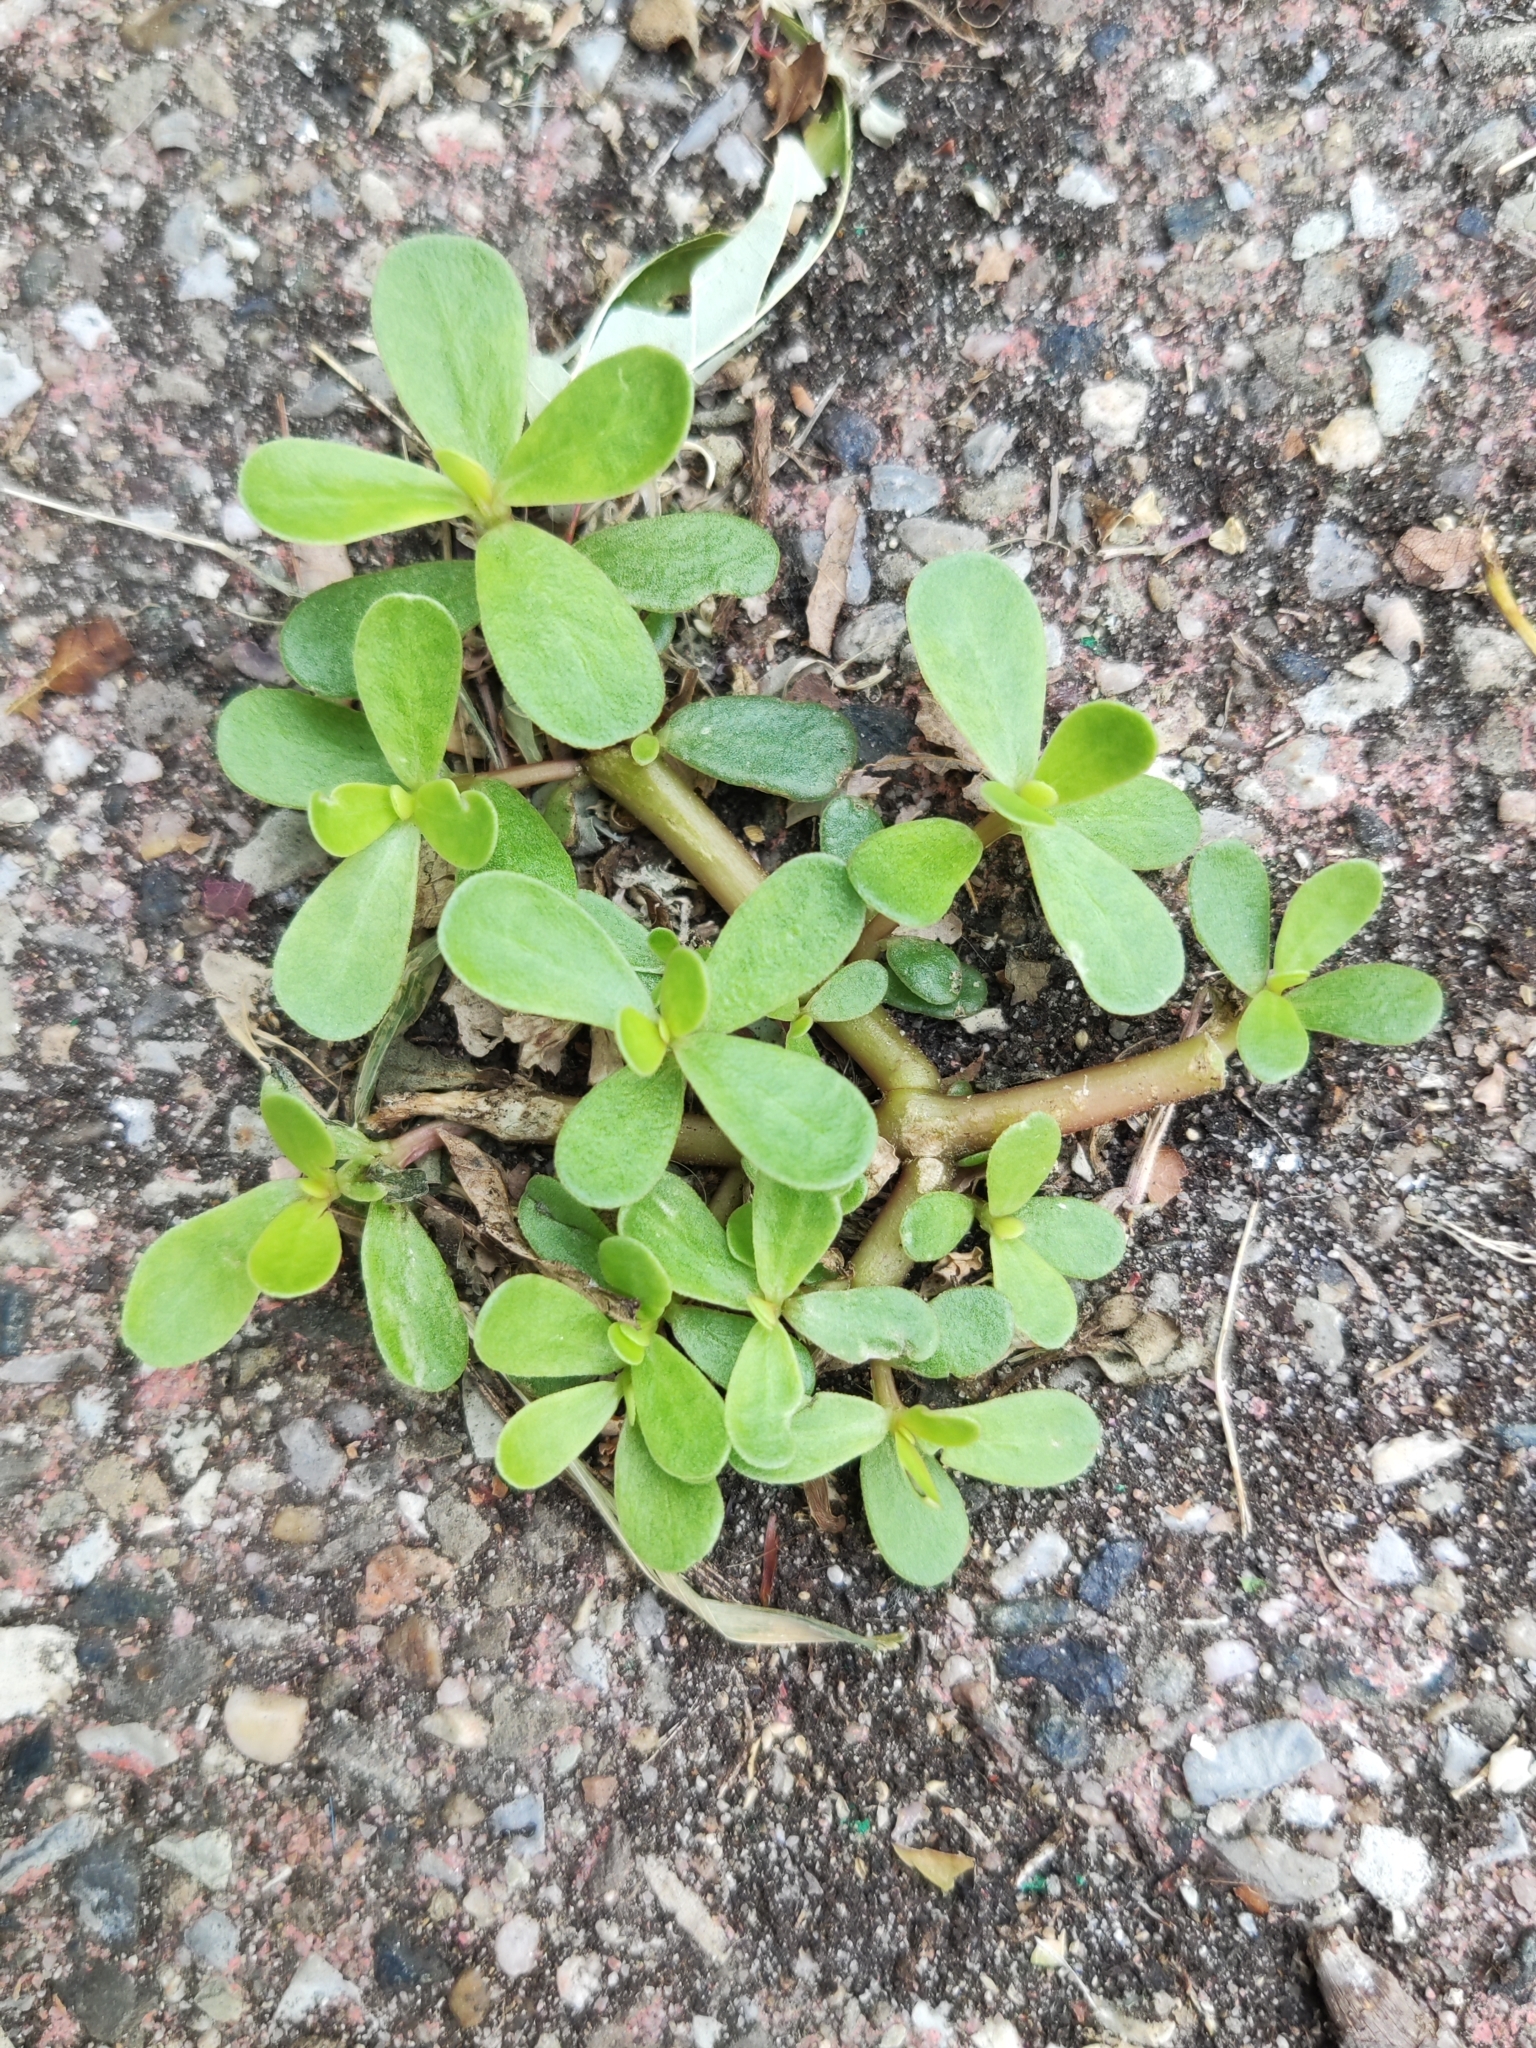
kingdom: Plantae
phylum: Tracheophyta
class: Magnoliopsida
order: Caryophyllales
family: Portulacaceae
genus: Portulaca
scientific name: Portulaca oleracea
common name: Common purslane
